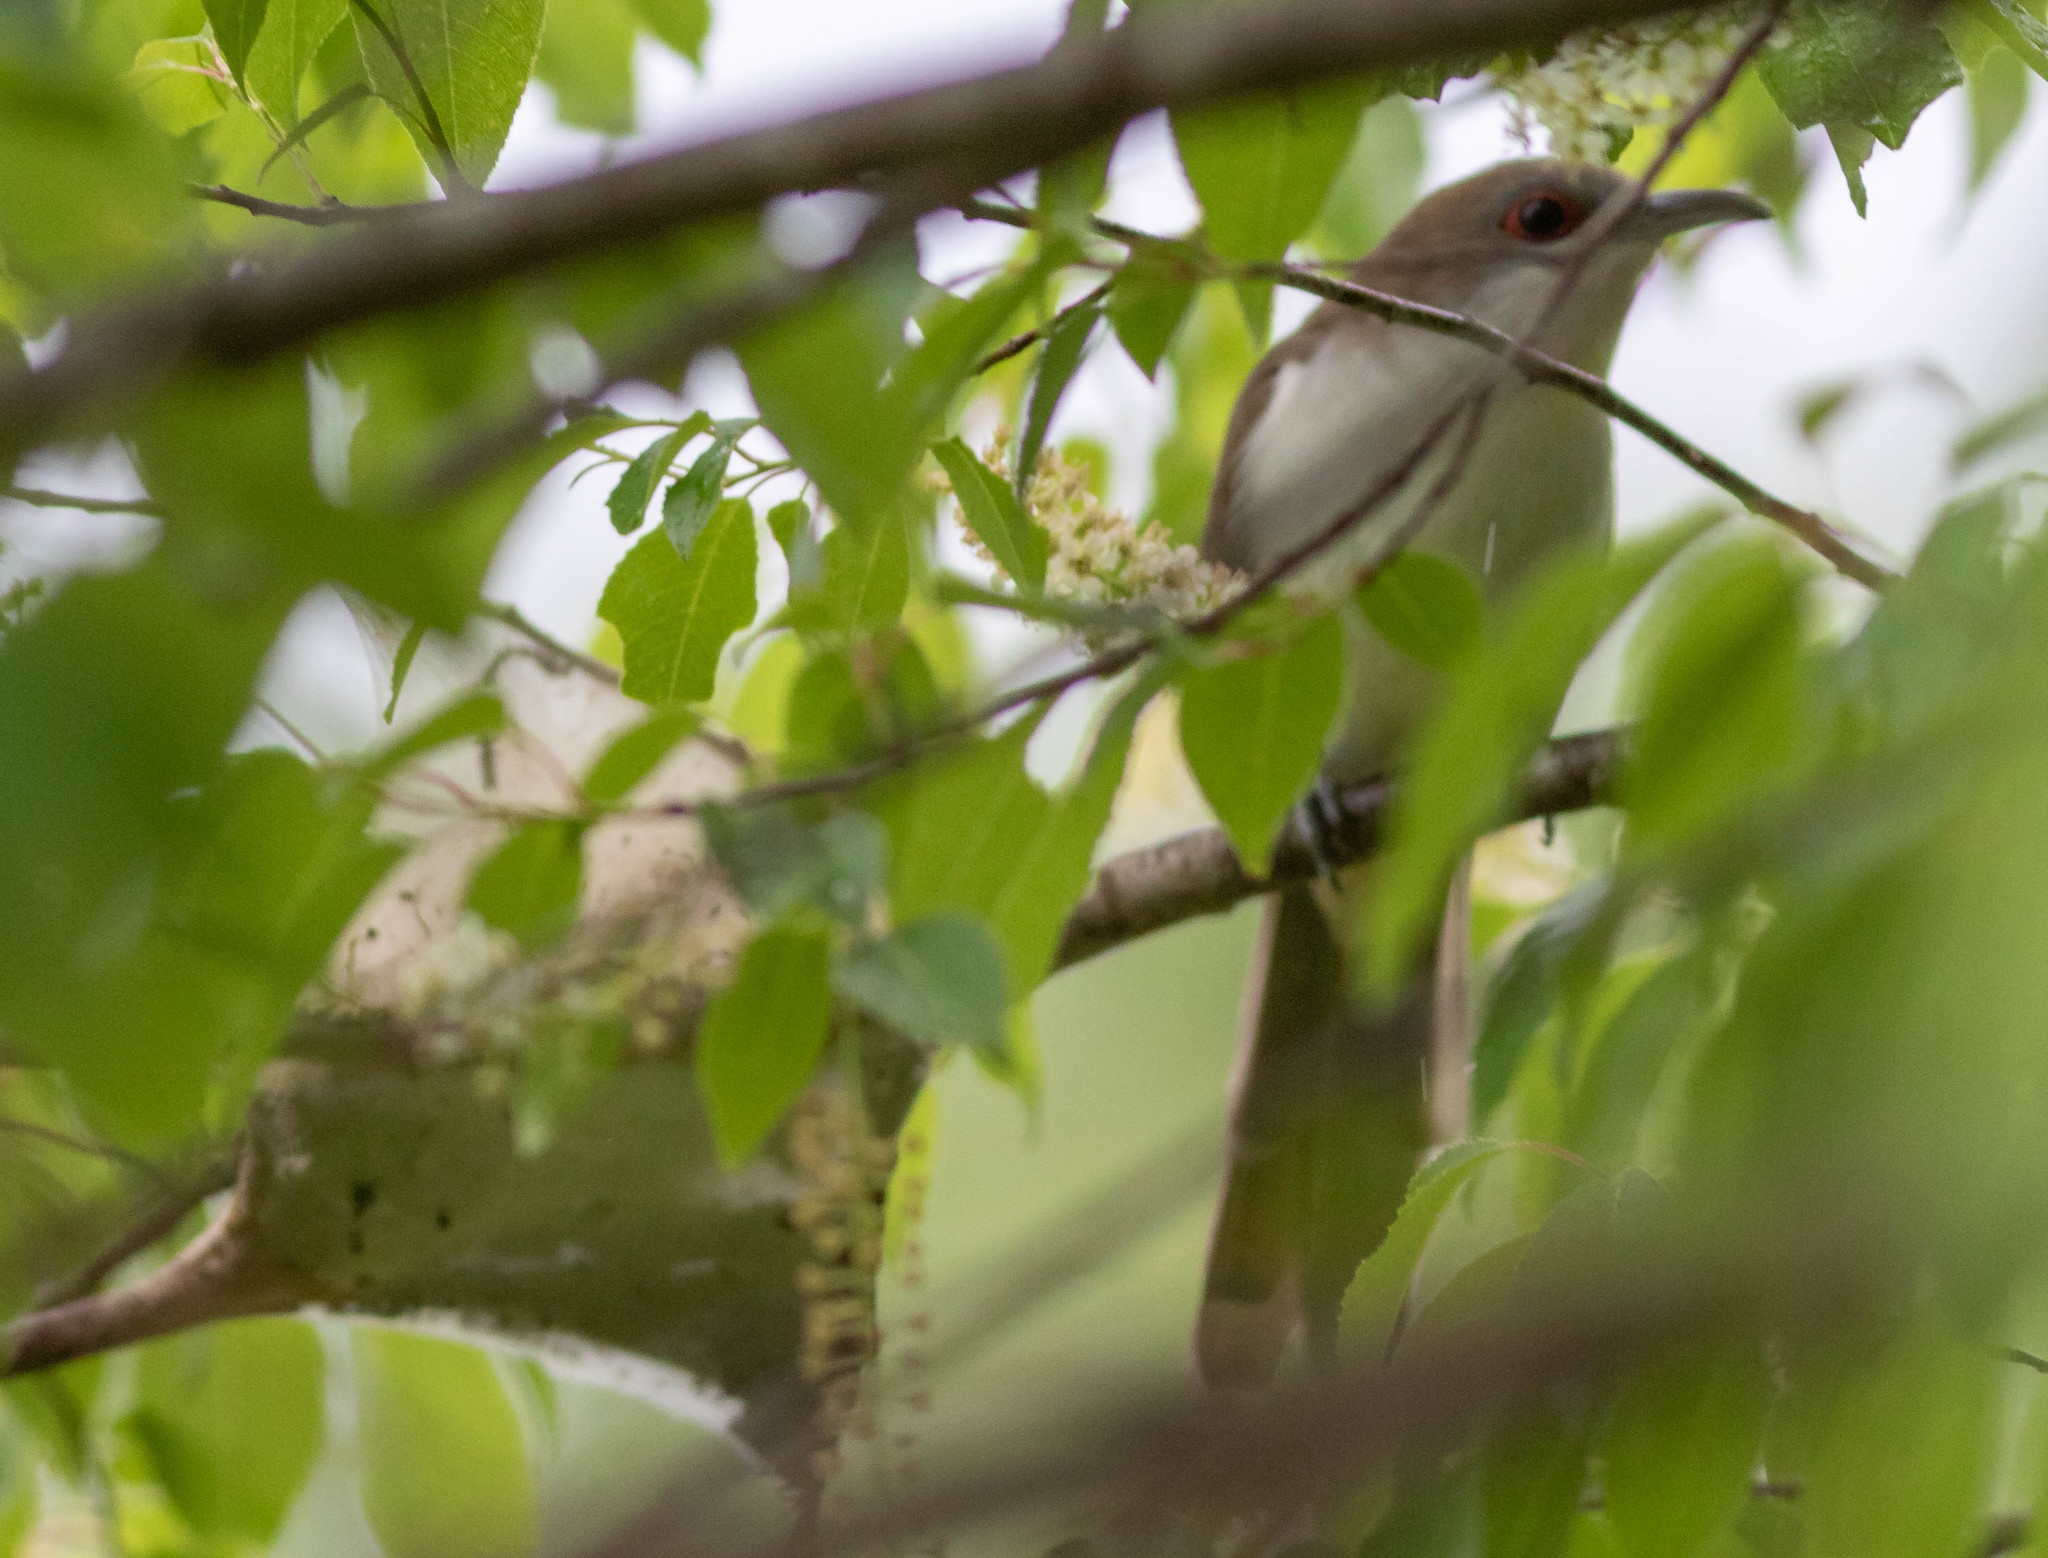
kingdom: Animalia
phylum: Chordata
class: Aves
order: Cuculiformes
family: Cuculidae
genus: Coccyzus
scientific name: Coccyzus erythropthalmus
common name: Black-billed cuckoo
